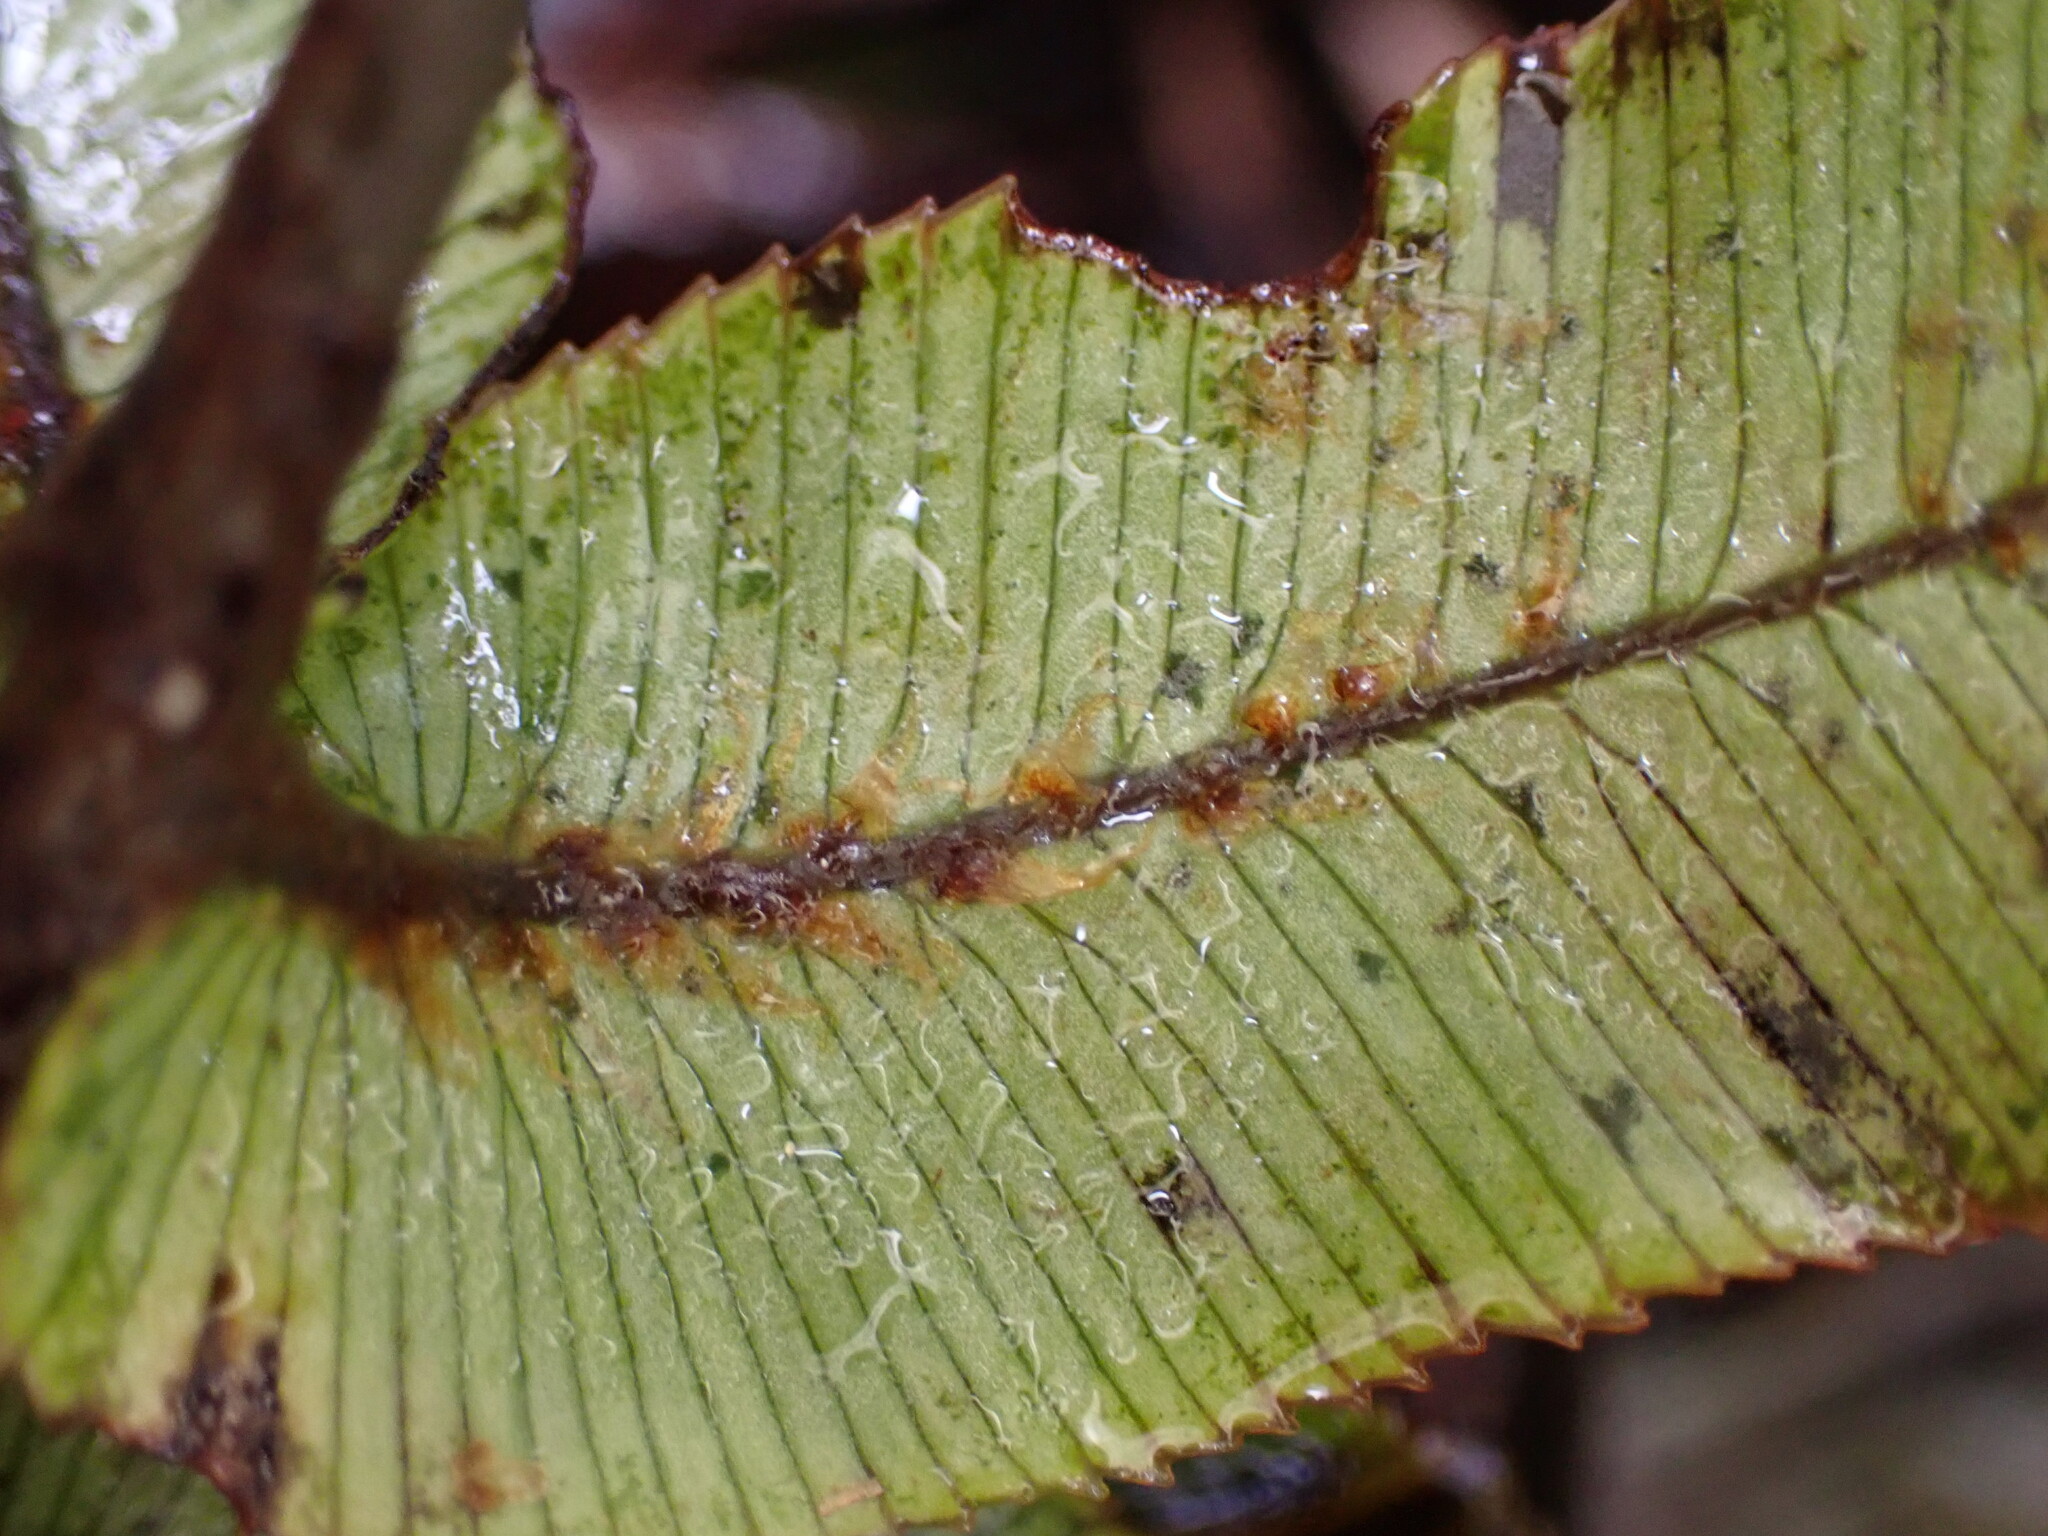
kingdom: Plantae
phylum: Tracheophyta
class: Polypodiopsida
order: Polypodiales
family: Blechnaceae
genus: Parablechnum
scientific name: Parablechnum montanum
